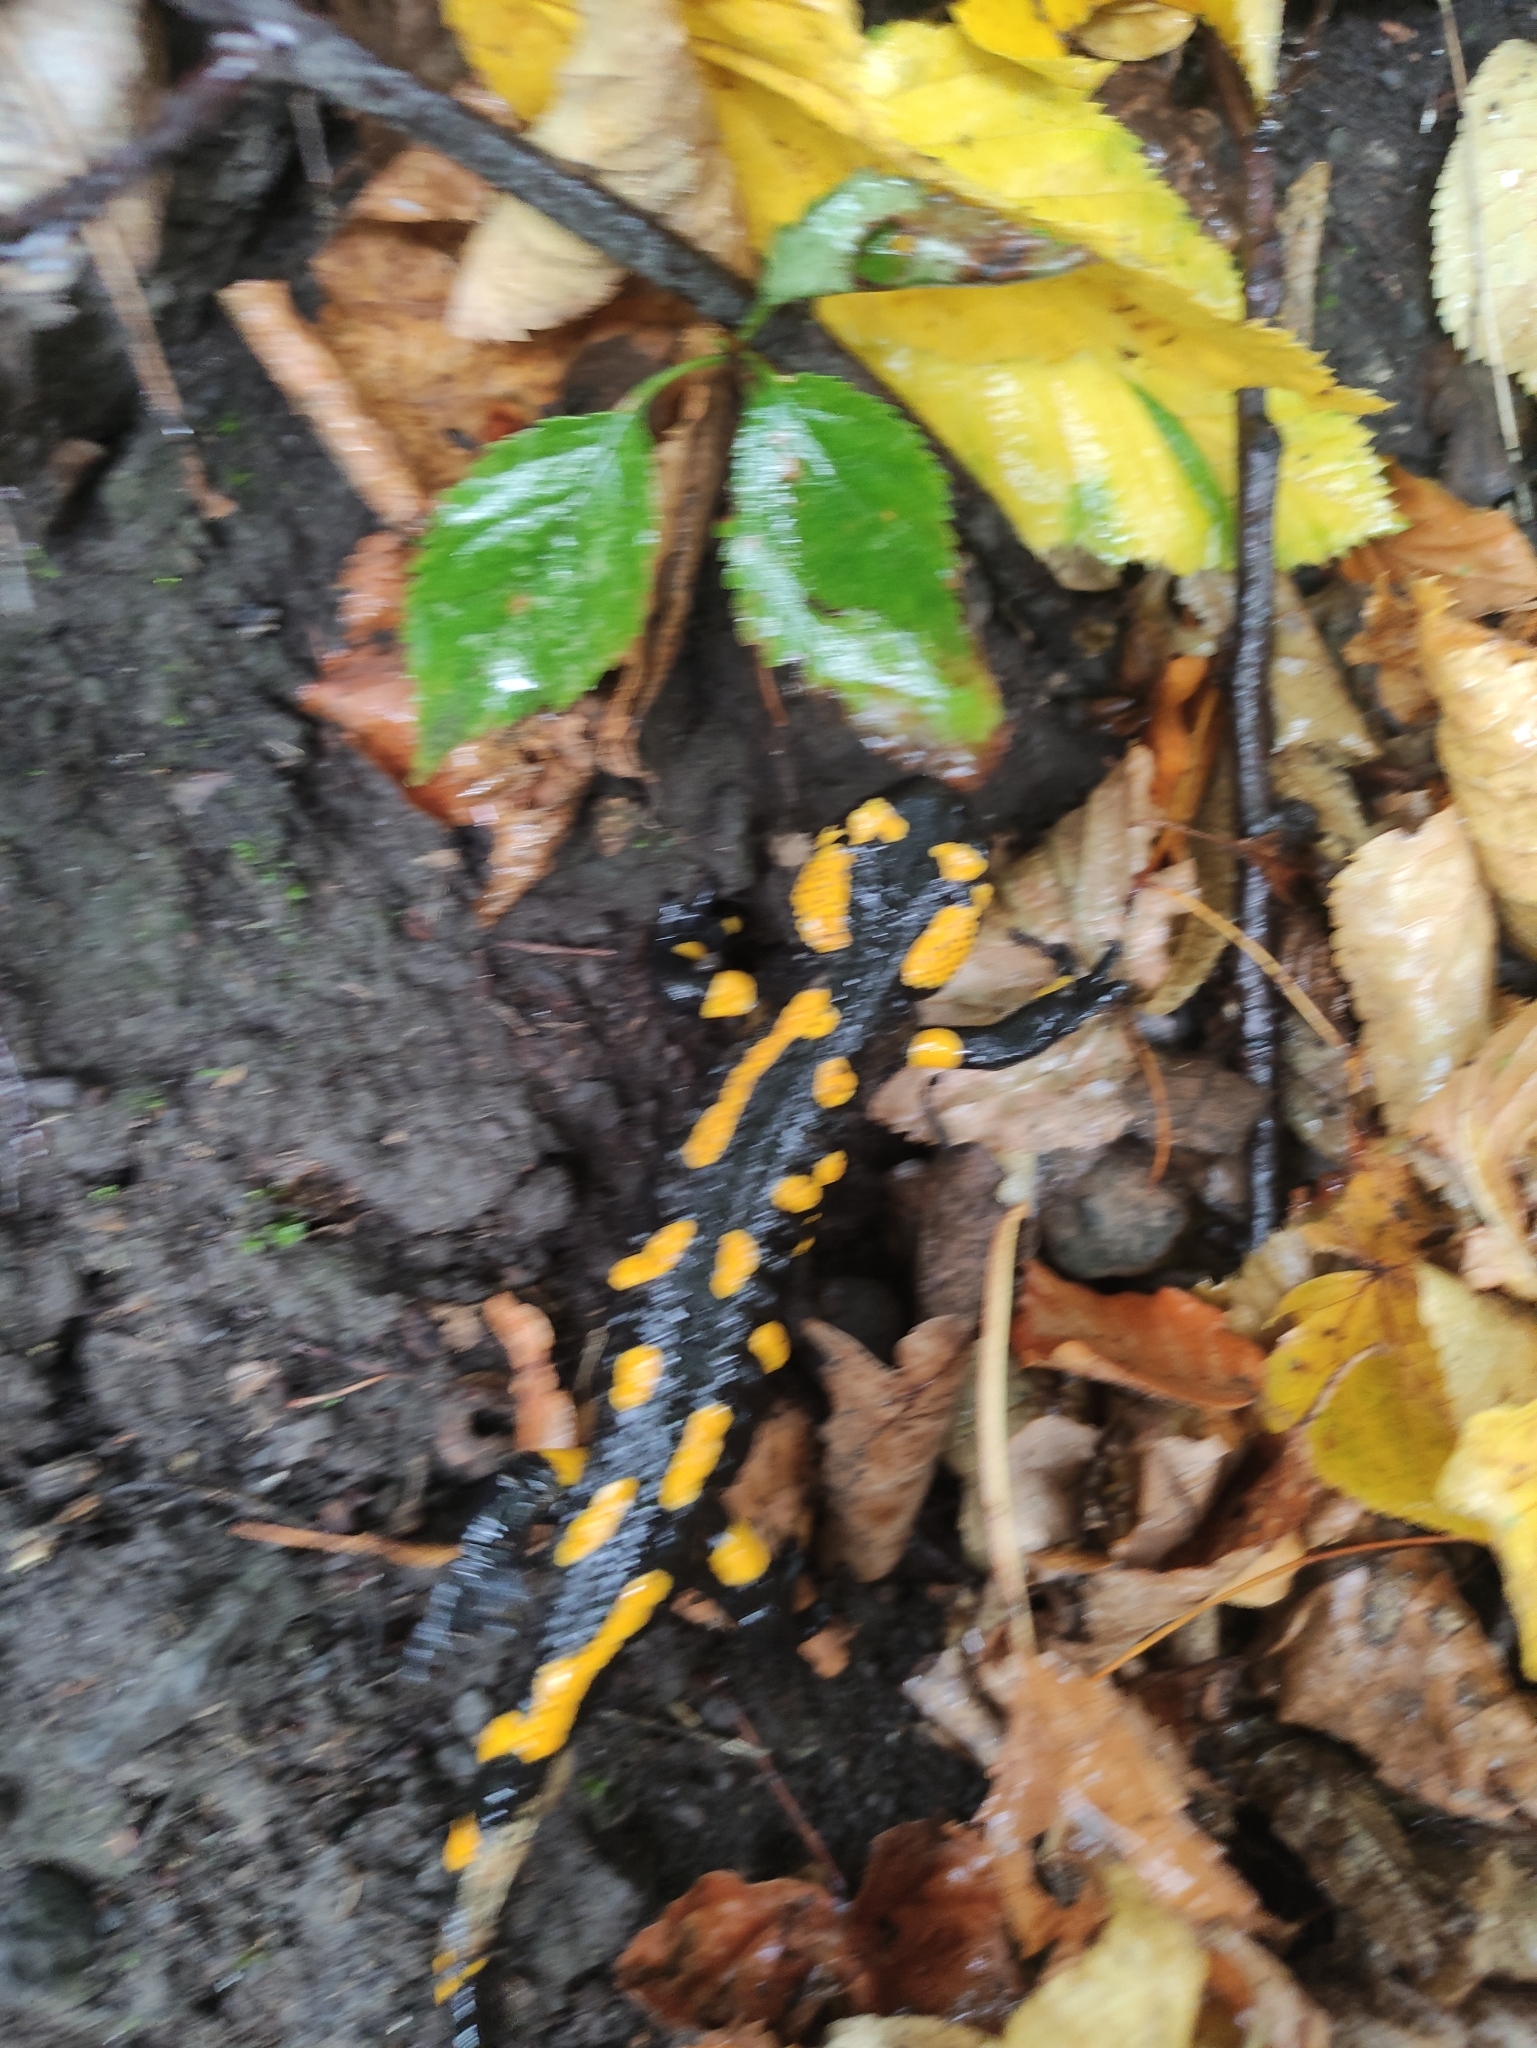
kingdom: Animalia
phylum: Chordata
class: Amphibia
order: Caudata
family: Salamandridae
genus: Salamandra
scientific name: Salamandra salamandra
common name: Fire salamander
